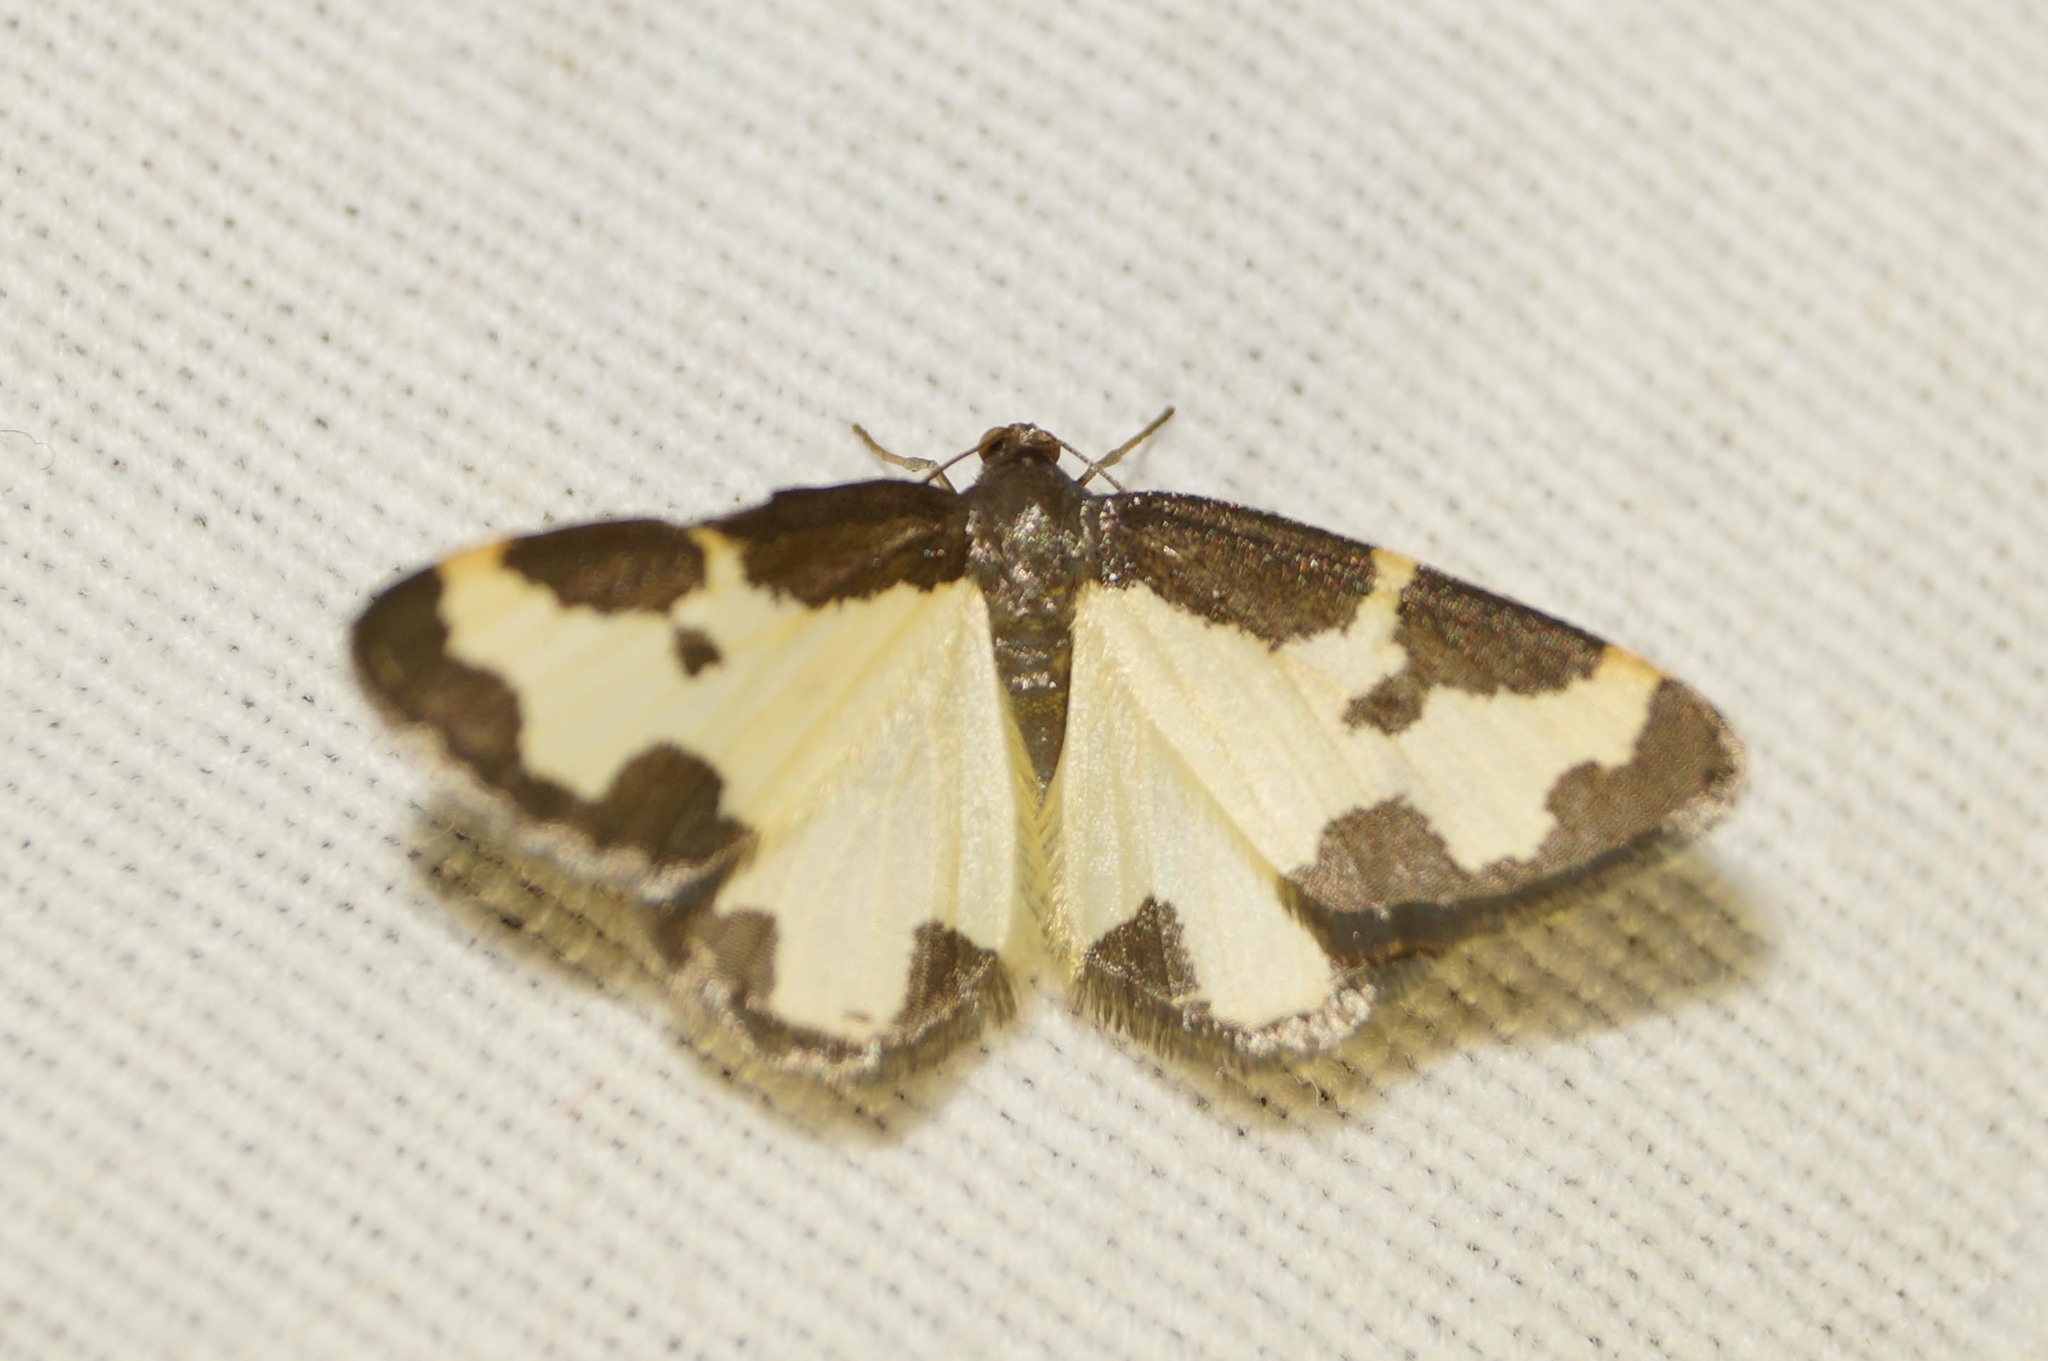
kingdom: Animalia
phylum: Arthropoda
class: Insecta
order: Lepidoptera
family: Geometridae
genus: Lomaspilis
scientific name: Lomaspilis marginata
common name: Clouded border
